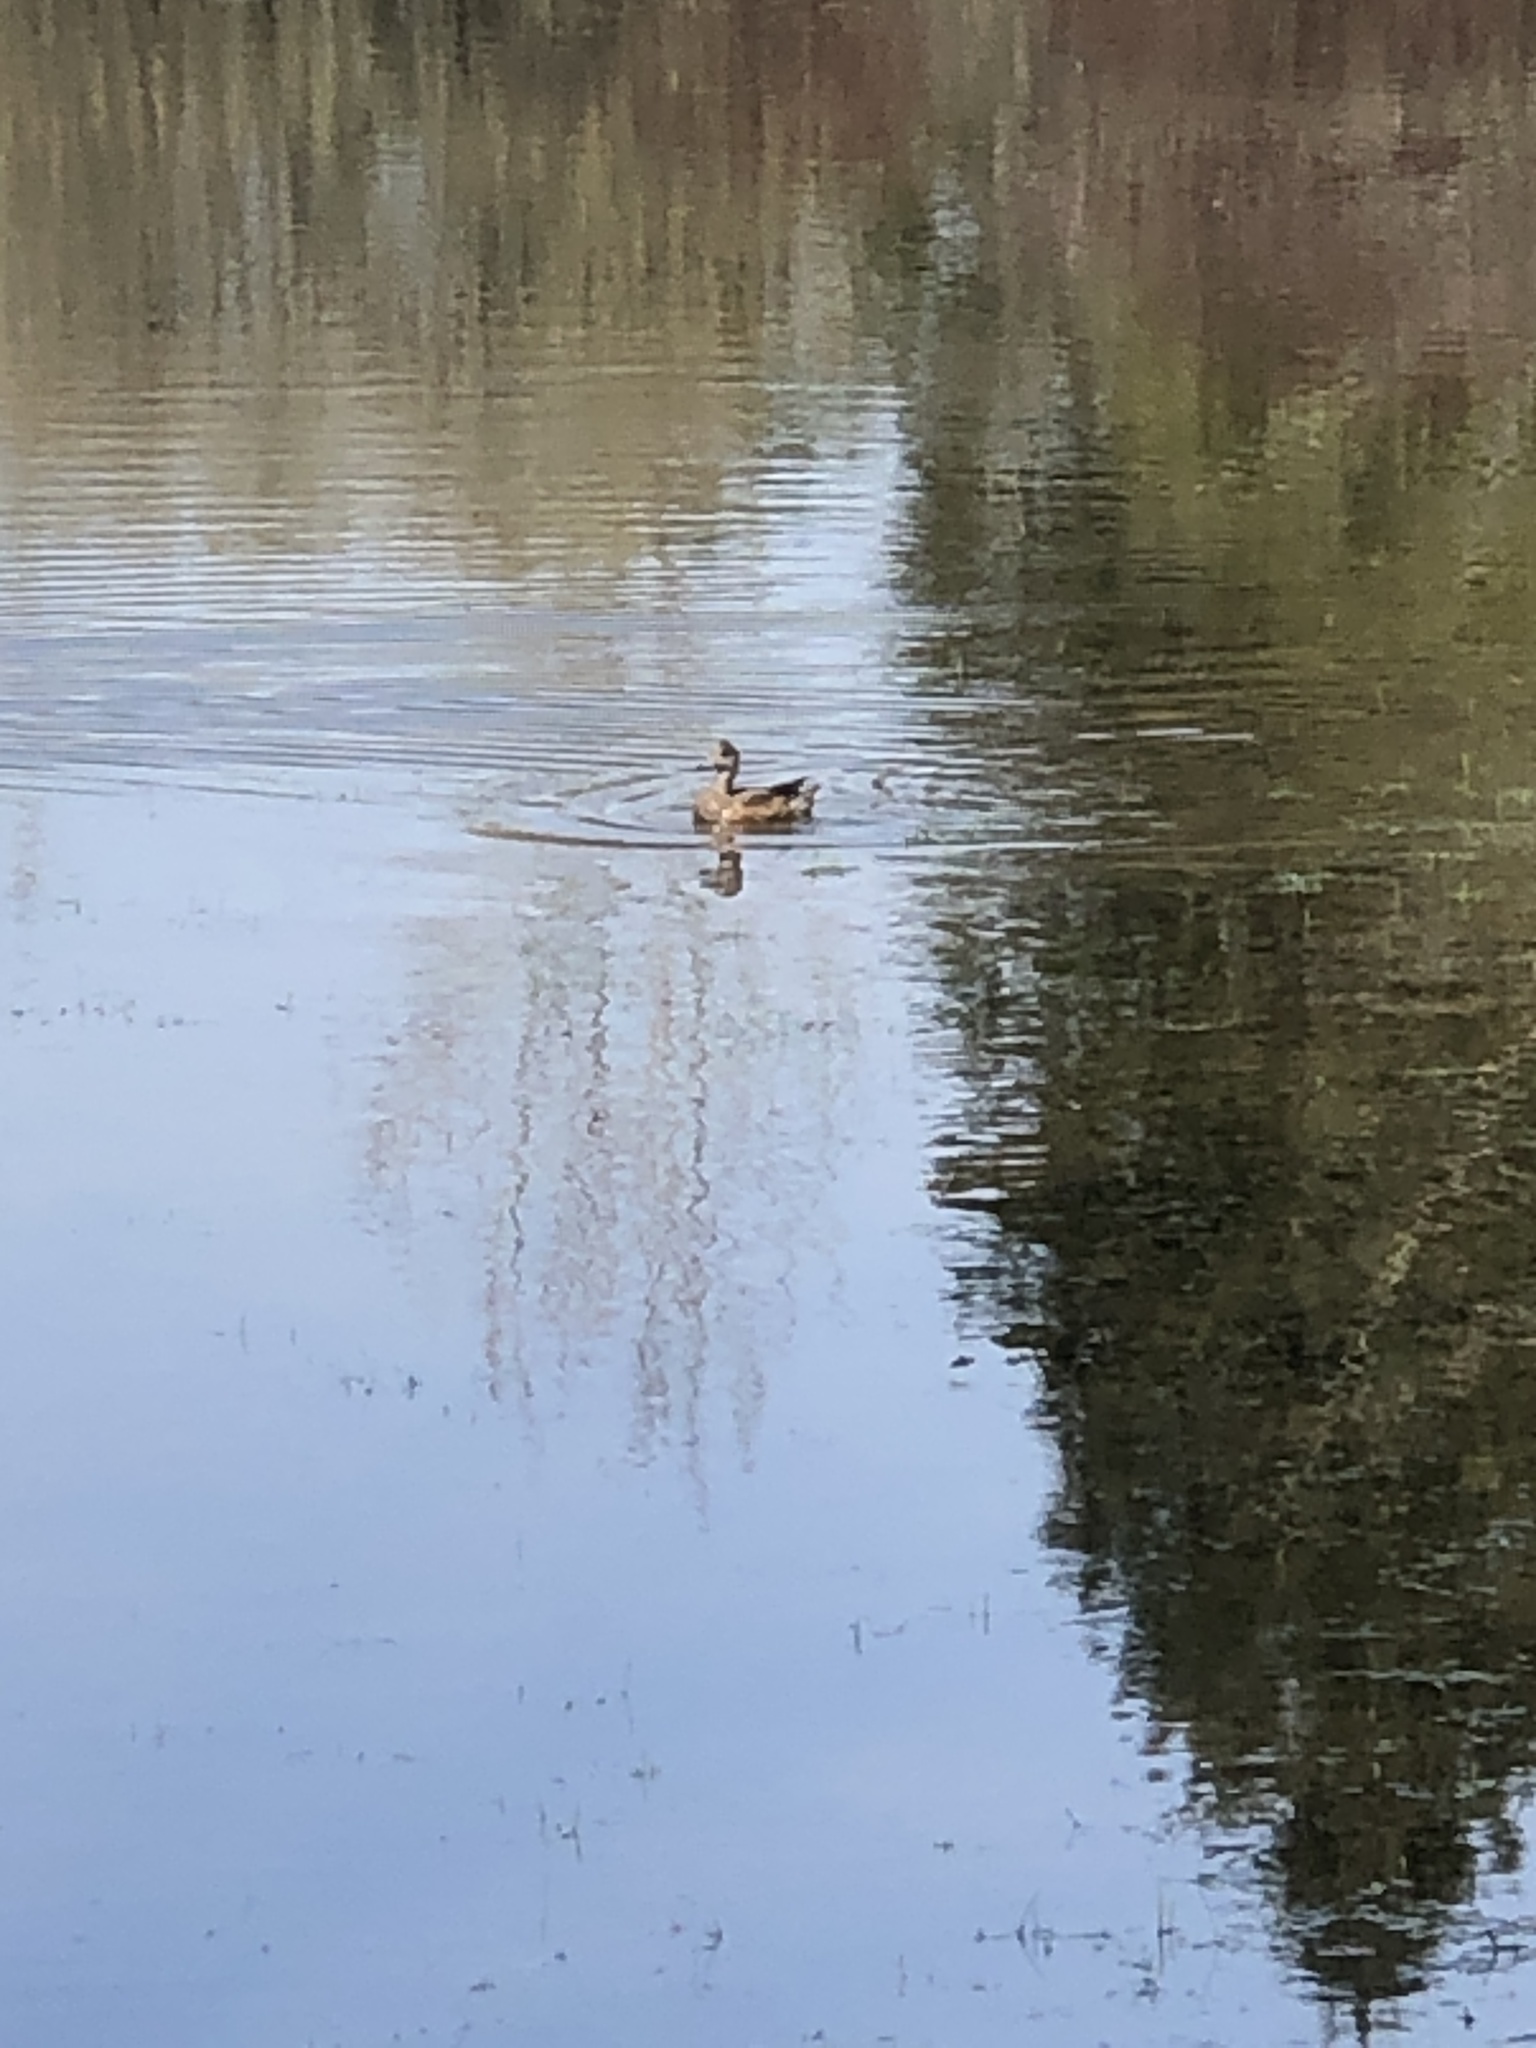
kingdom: Animalia
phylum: Chordata
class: Aves
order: Anseriformes
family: Anatidae
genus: Mareca
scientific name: Mareca americana
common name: American wigeon
